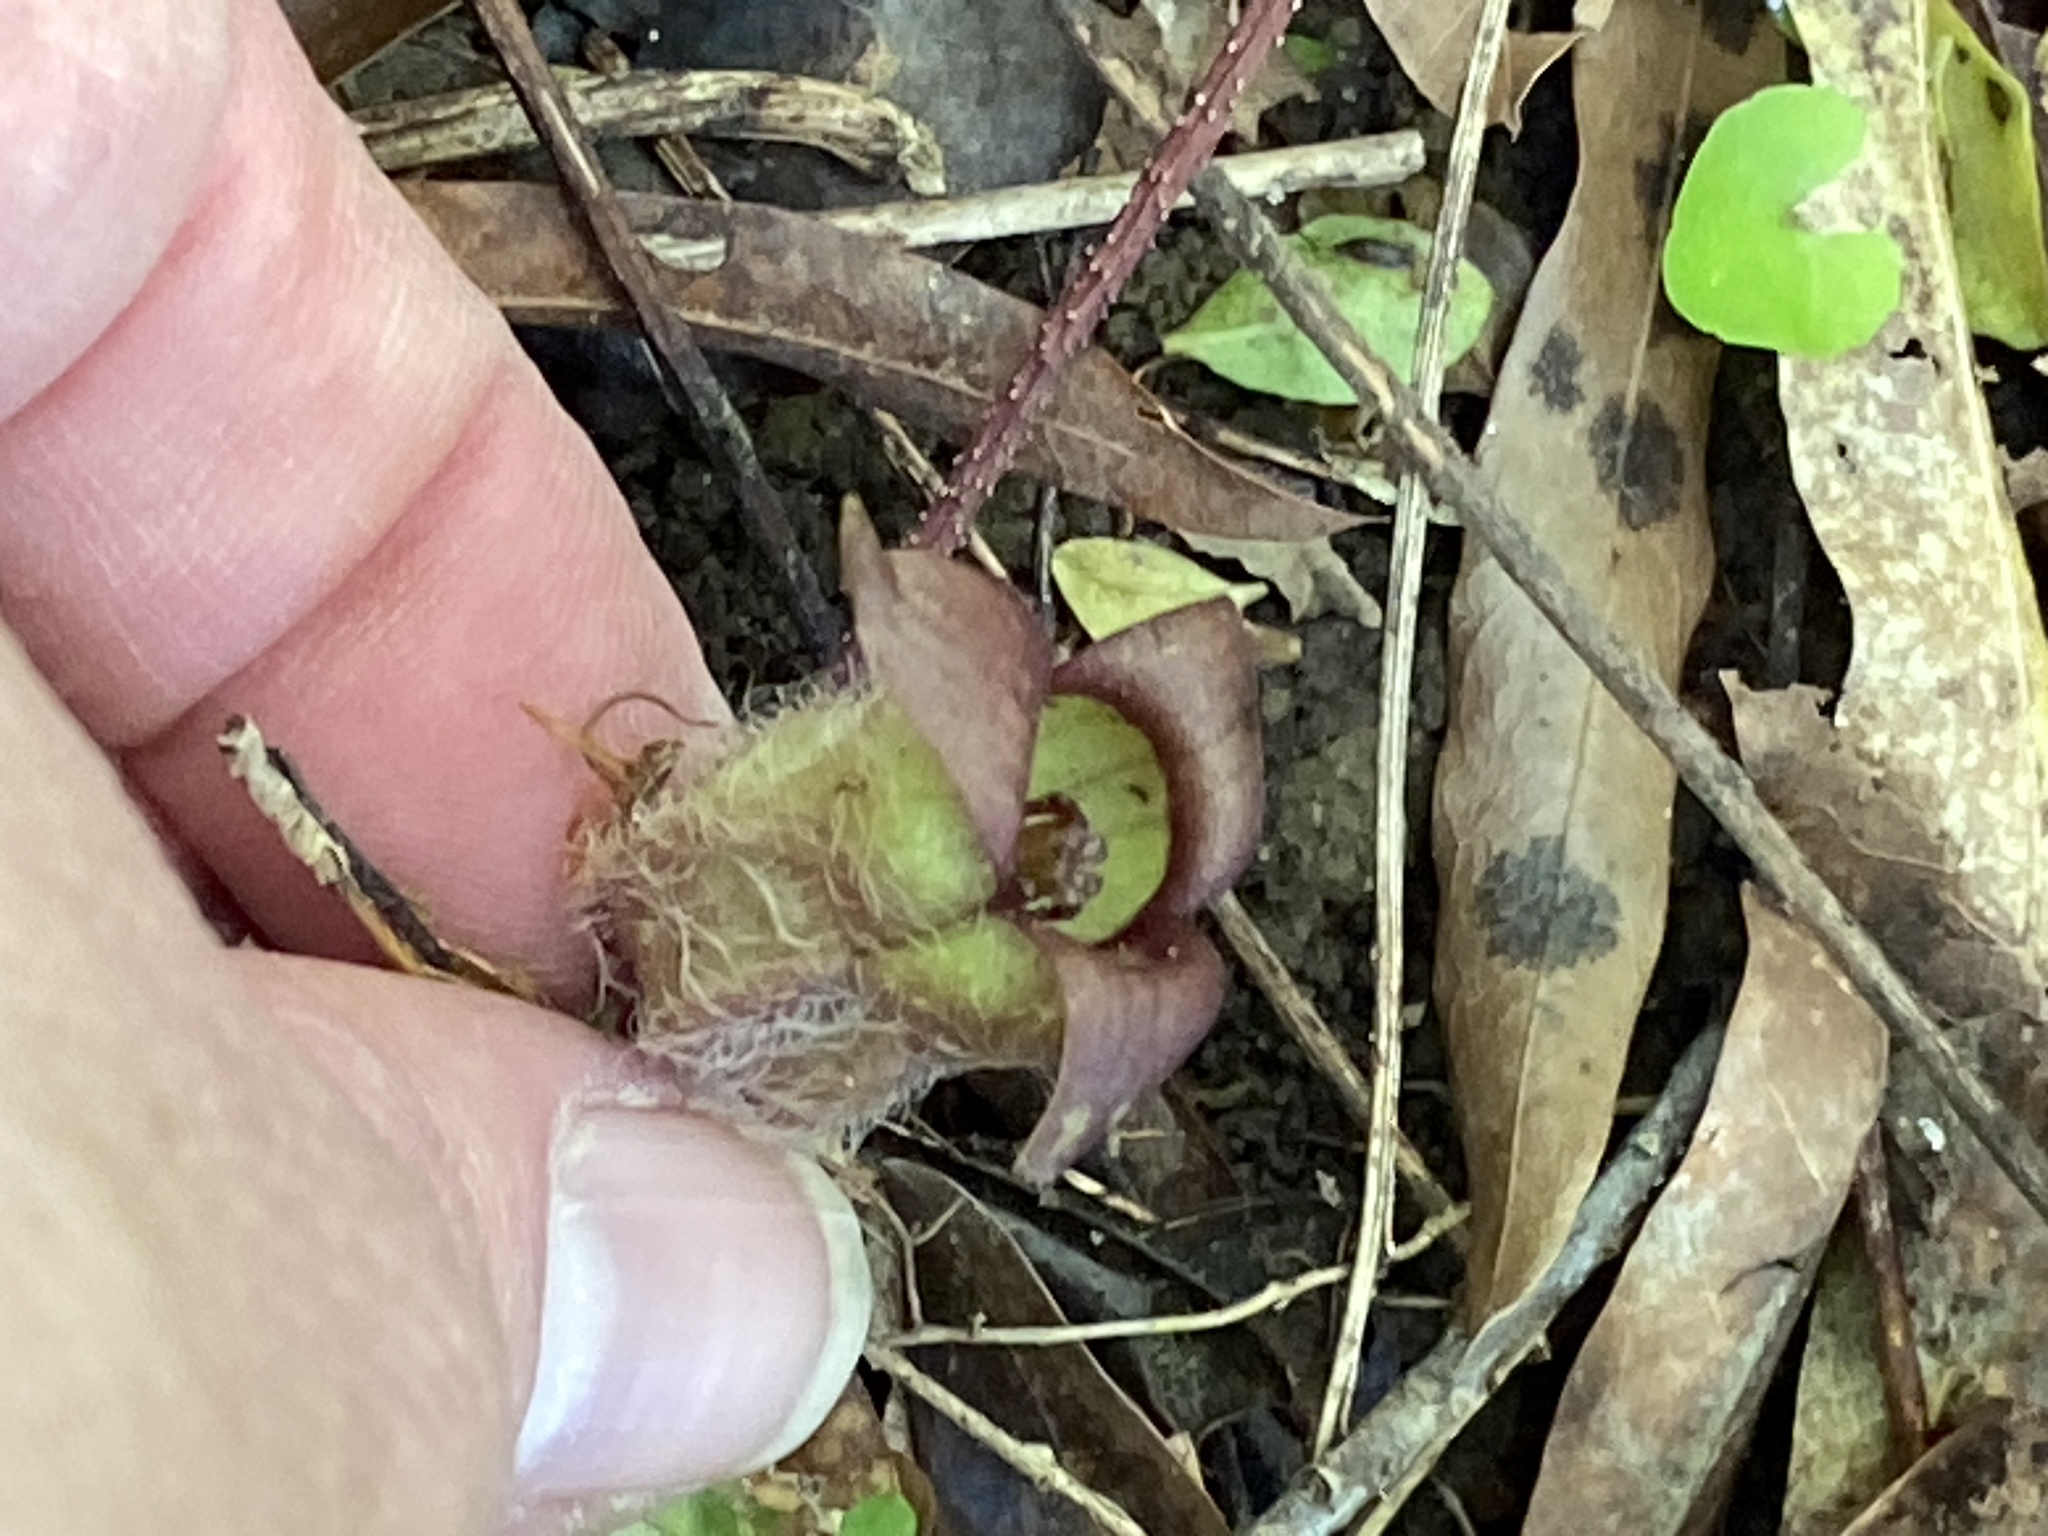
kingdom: Plantae
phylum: Tracheophyta
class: Magnoliopsida
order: Piperales
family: Aristolochiaceae
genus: Asarum
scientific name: Asarum canadense
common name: Wild ginger
